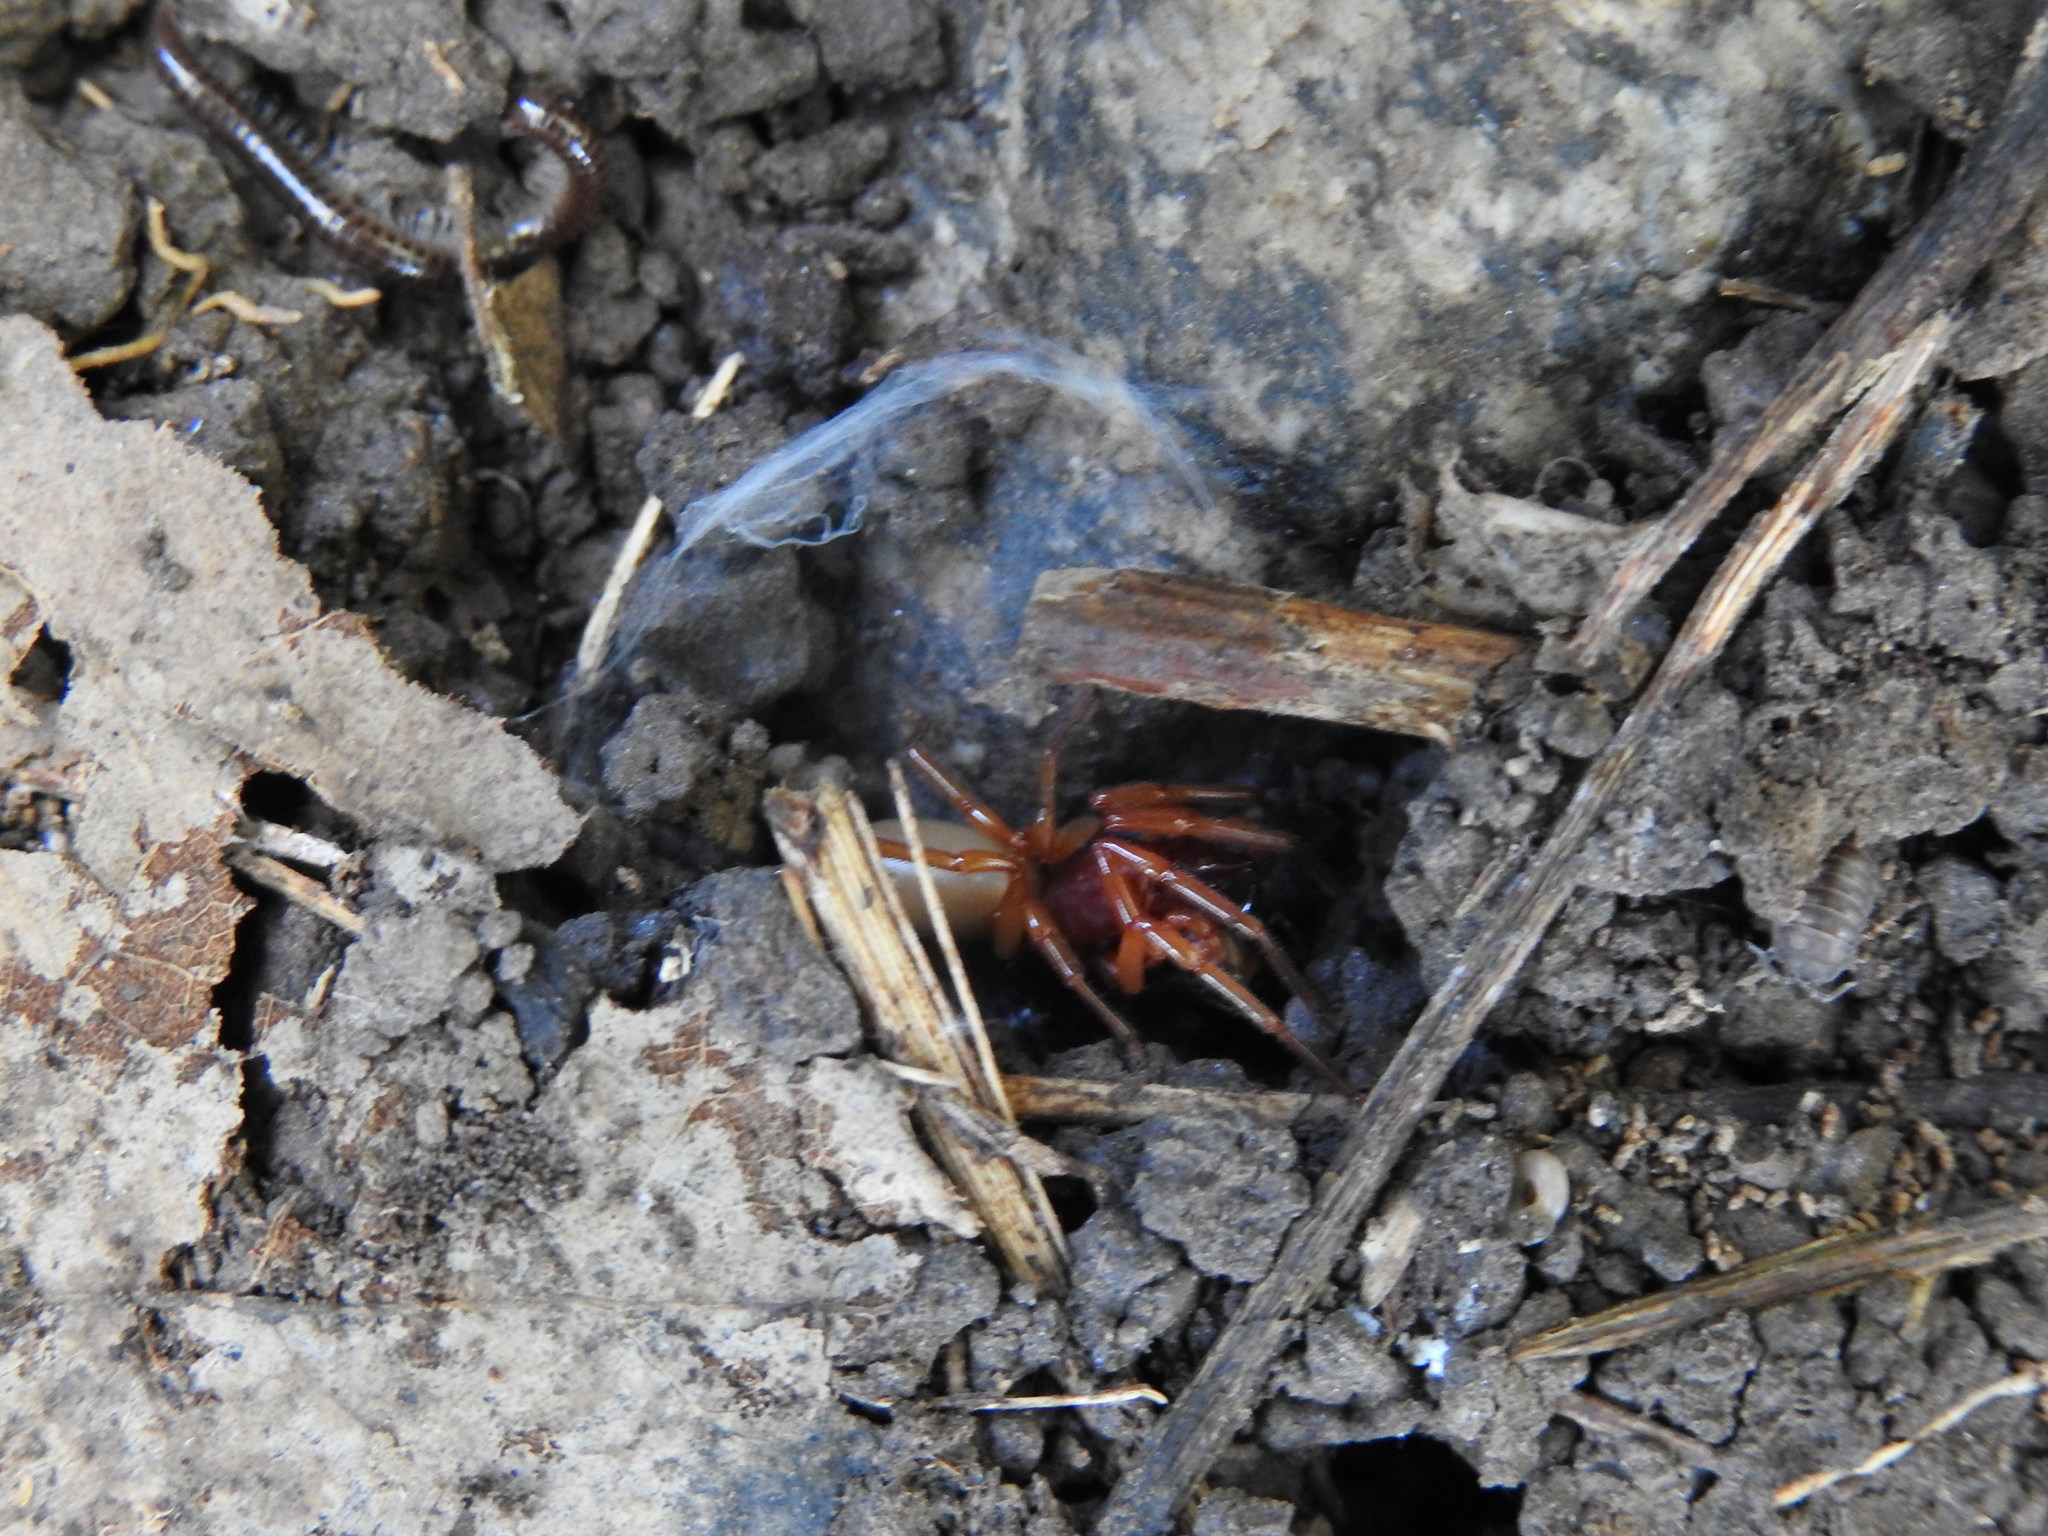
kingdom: Animalia
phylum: Arthropoda
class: Arachnida
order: Araneae
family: Dysderidae
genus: Dysdera
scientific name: Dysdera crocata
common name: Woodlouse spider
